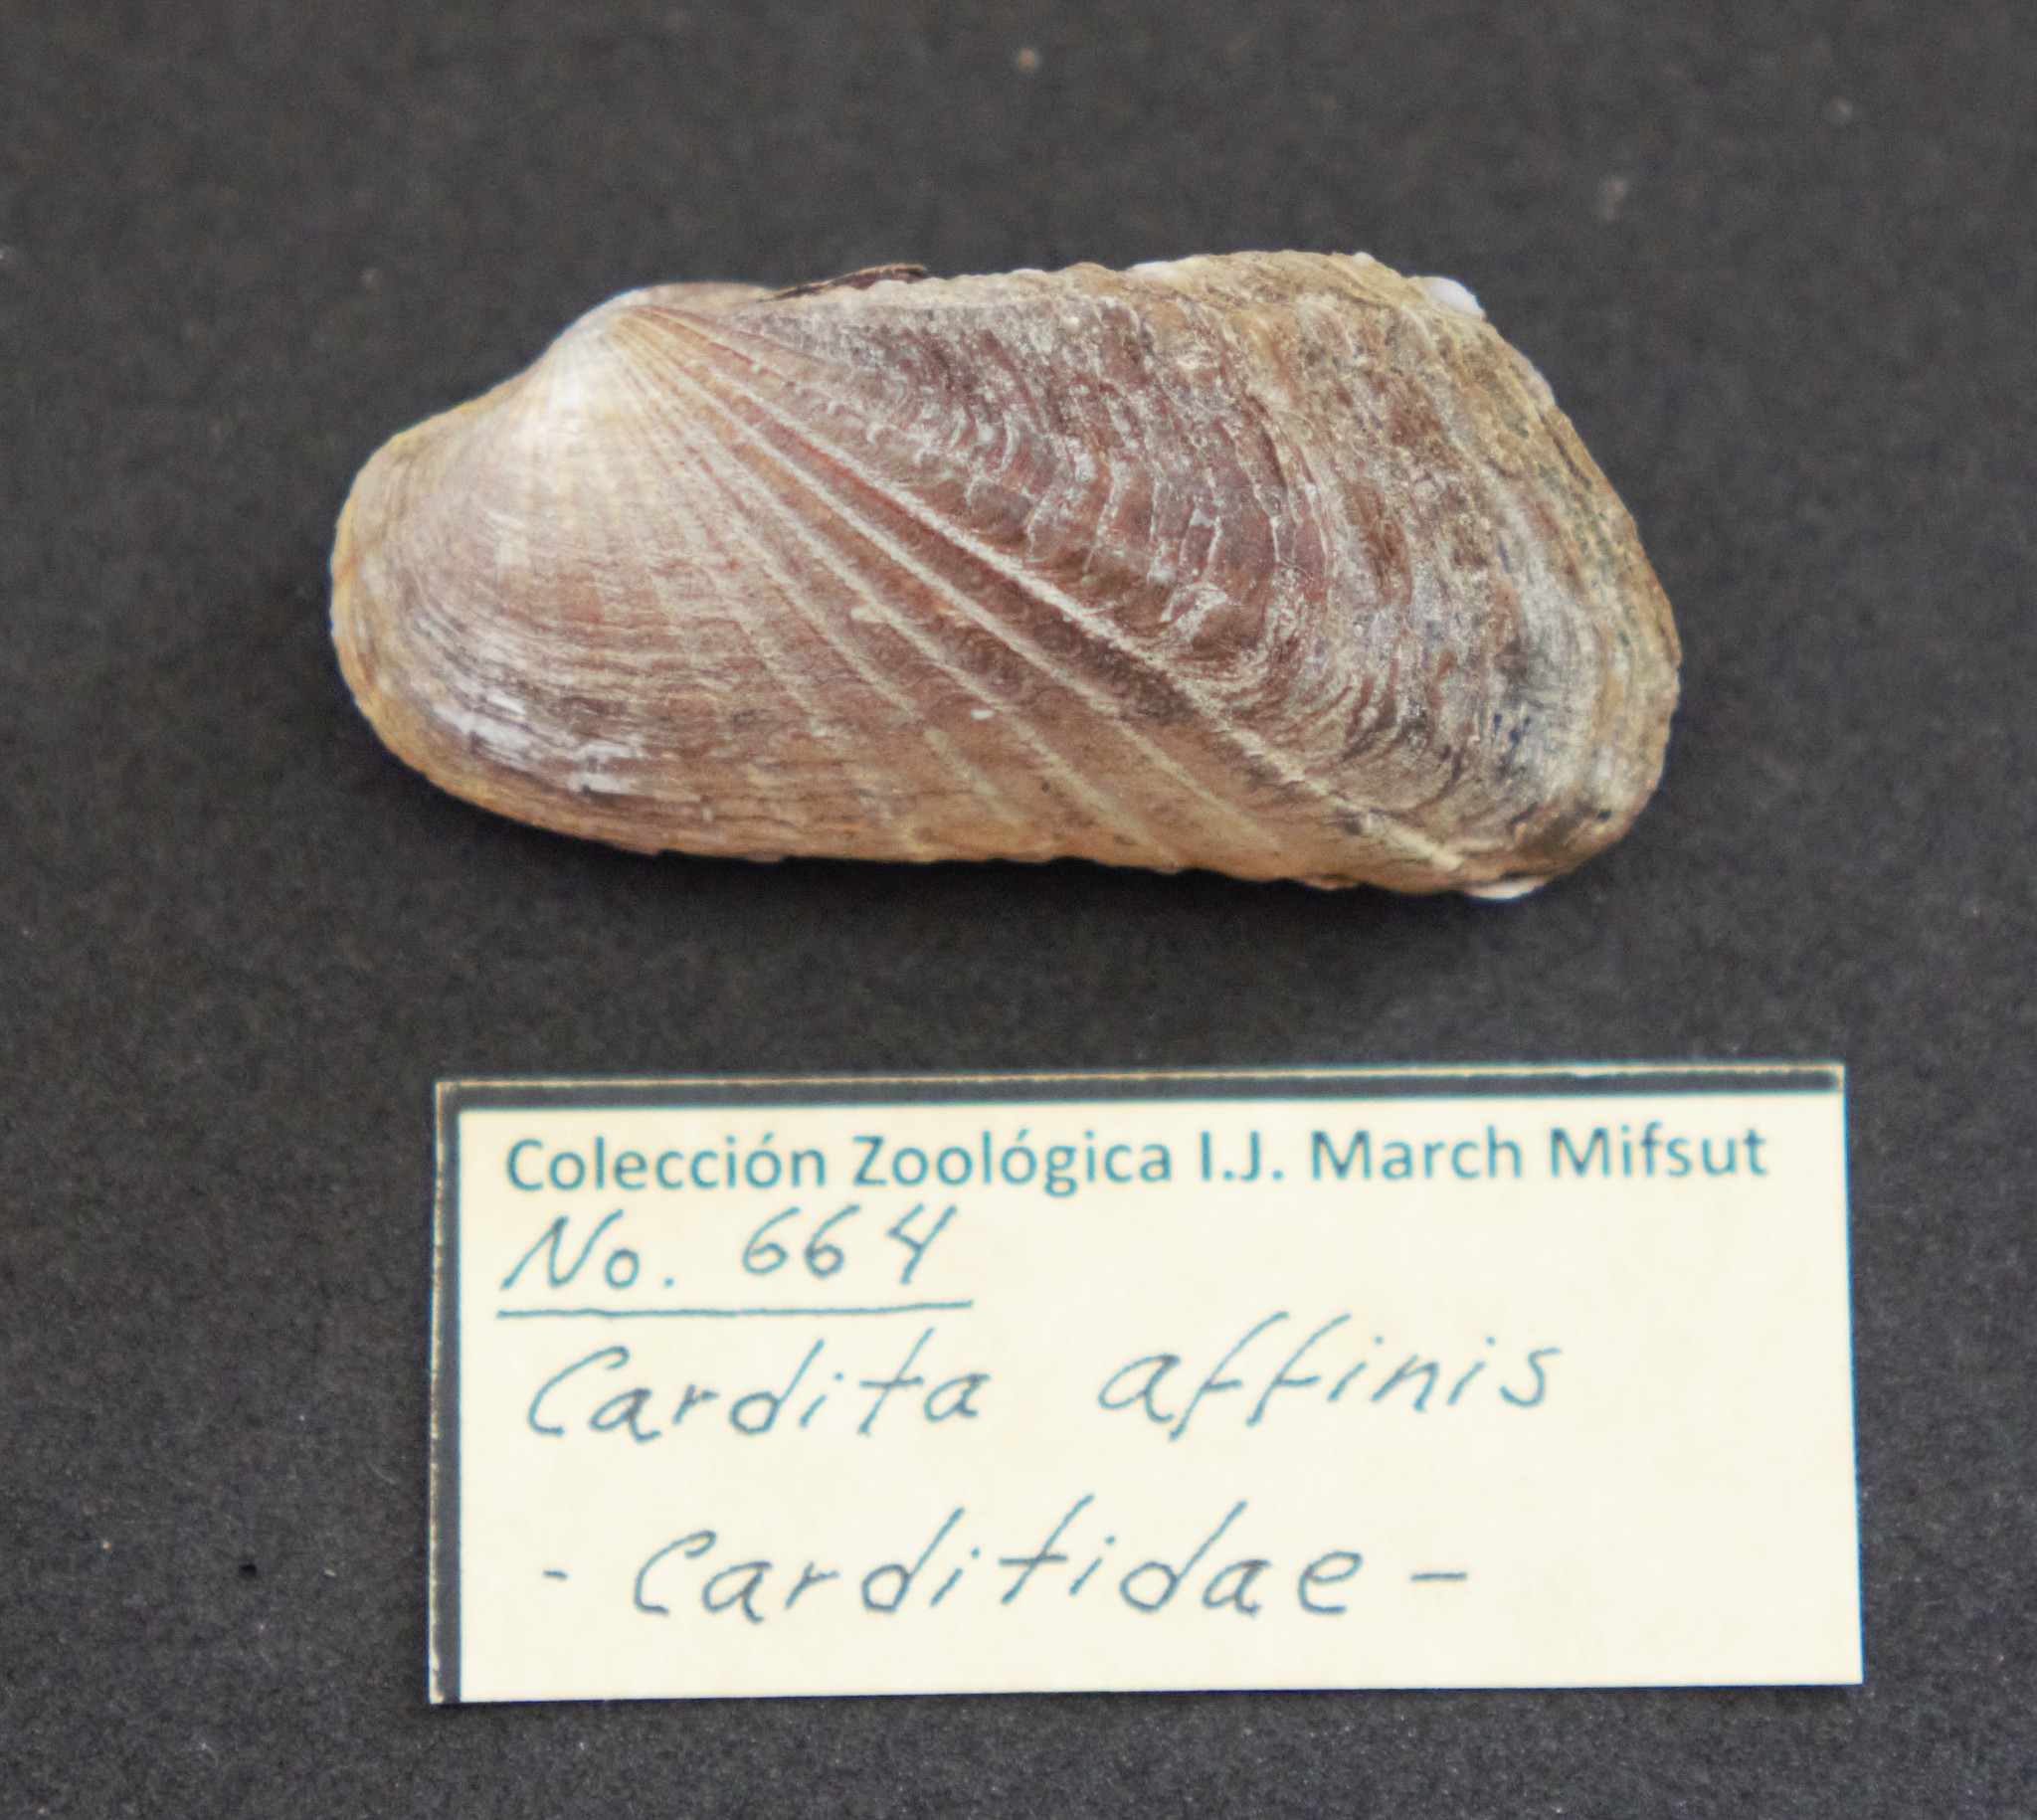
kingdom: Animalia
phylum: Mollusca
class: Bivalvia
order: Carditida
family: Carditidae
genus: Carditamera
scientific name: Carditamera affinis
